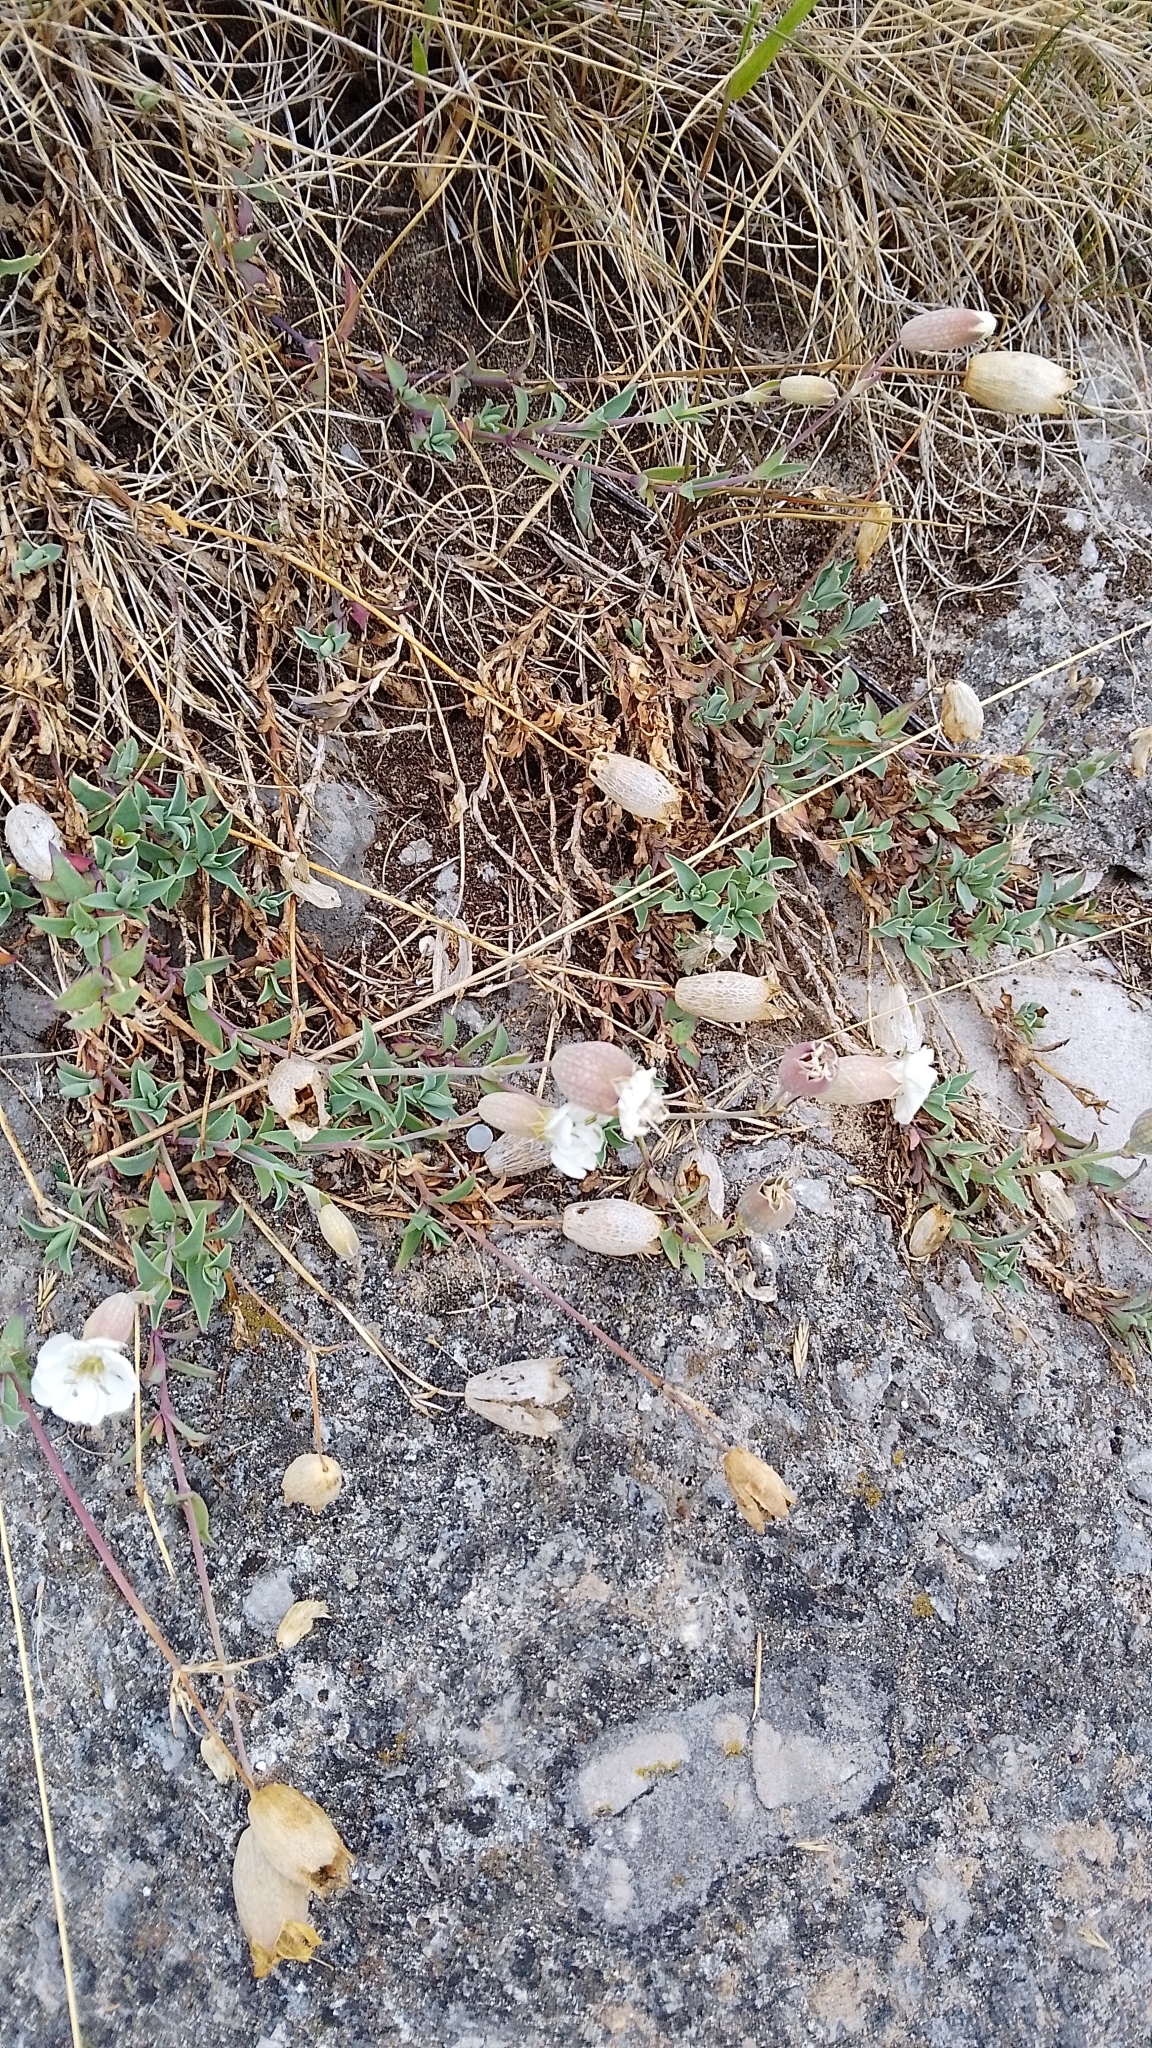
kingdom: Plantae
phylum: Tracheophyta
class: Magnoliopsida
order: Caryophyllales
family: Caryophyllaceae
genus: Silene
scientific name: Silene uniflora
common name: Sea campion
